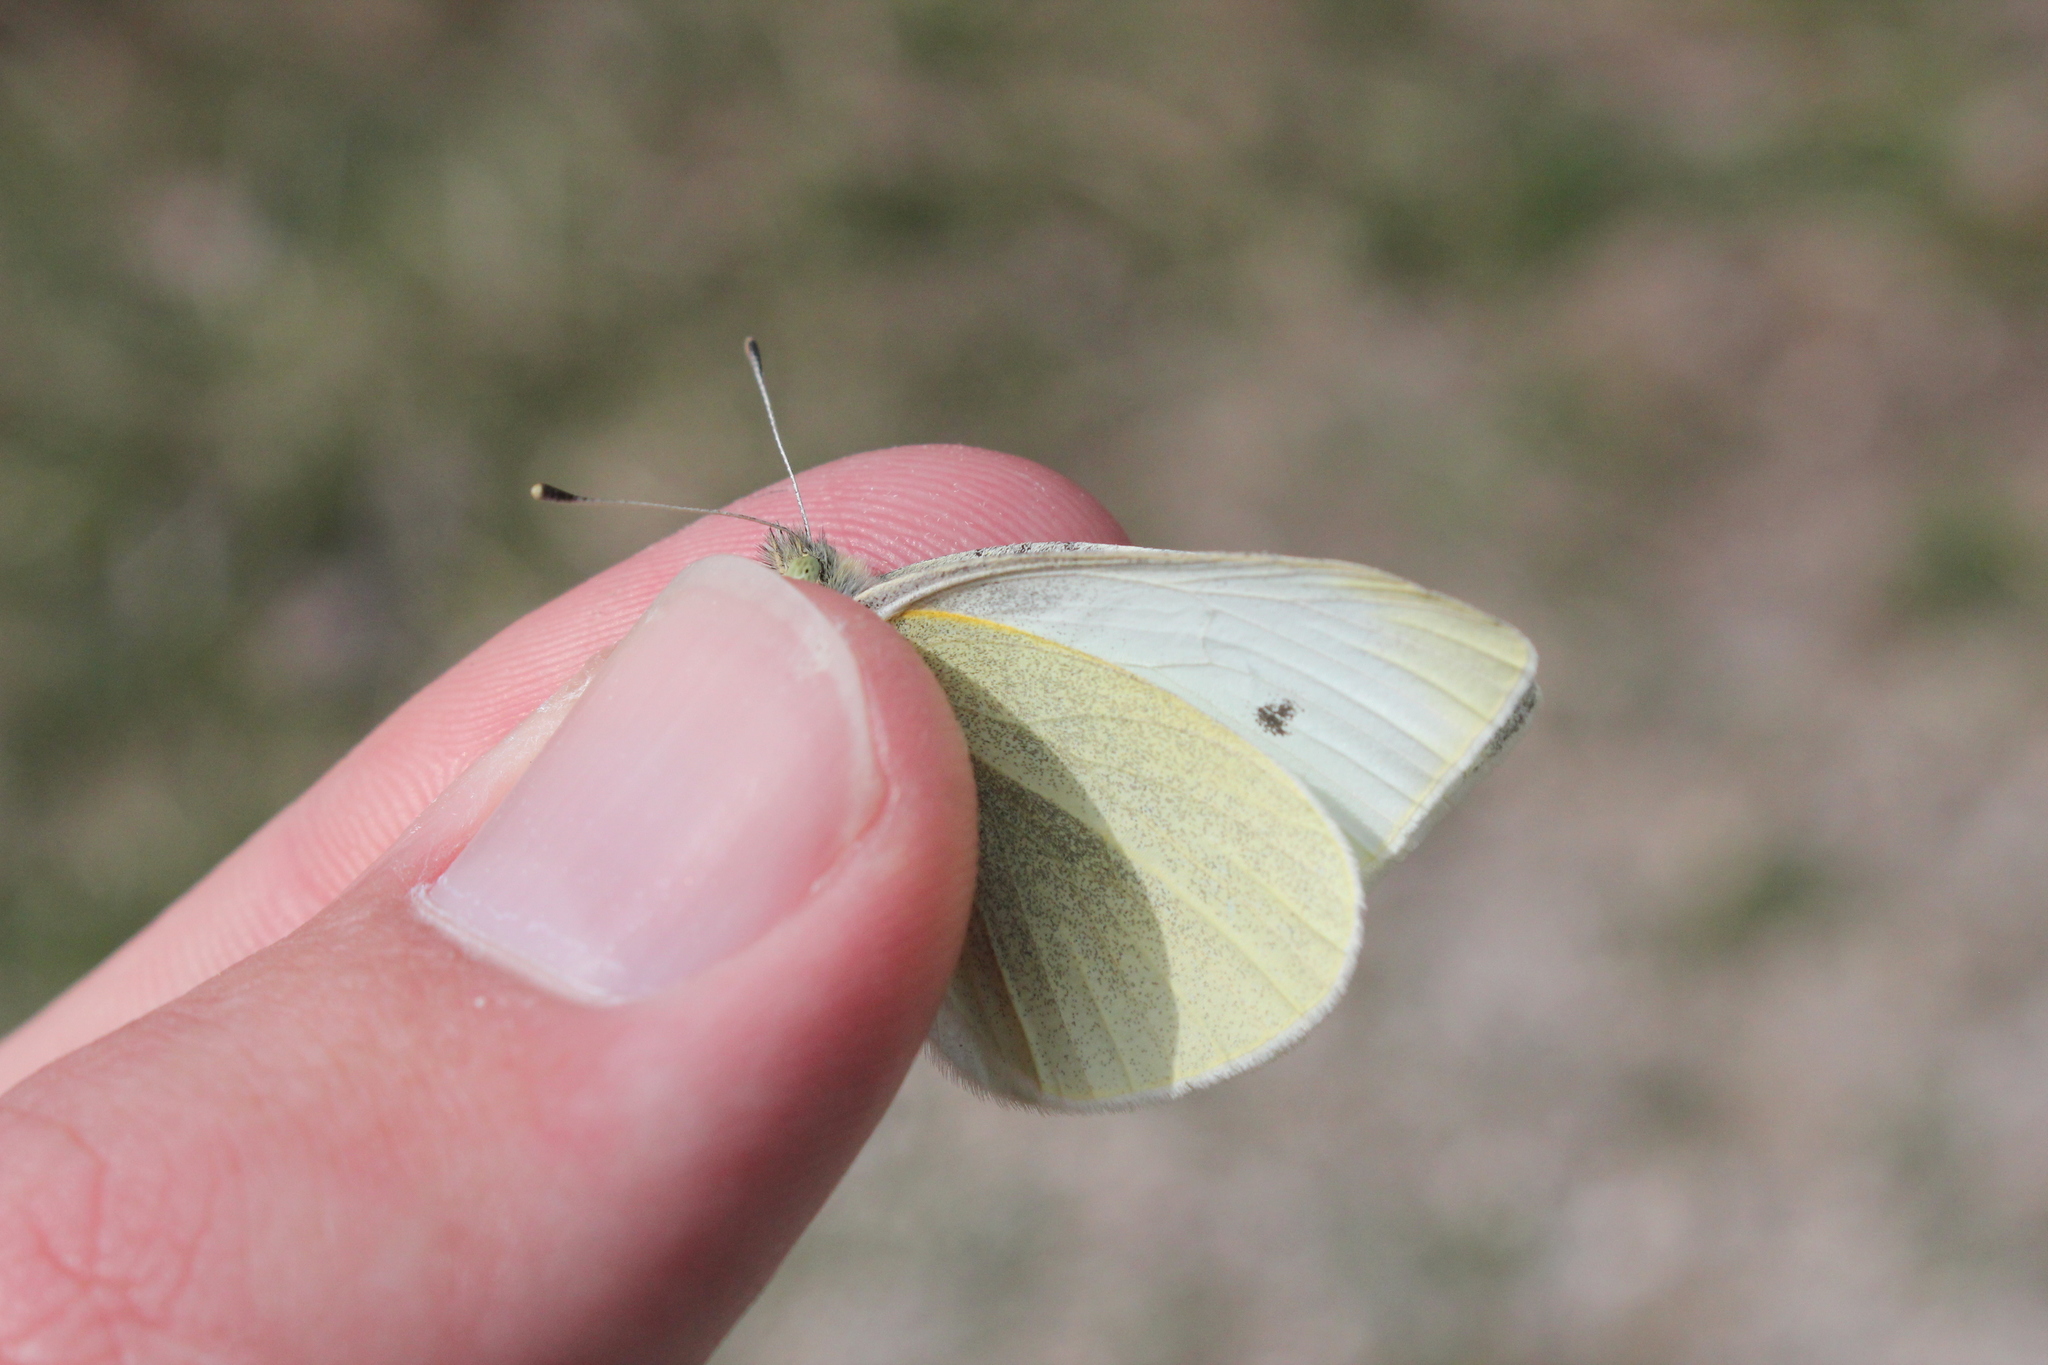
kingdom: Animalia
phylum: Arthropoda
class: Insecta
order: Lepidoptera
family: Pieridae
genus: Pieris
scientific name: Pieris rapae
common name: Small white
